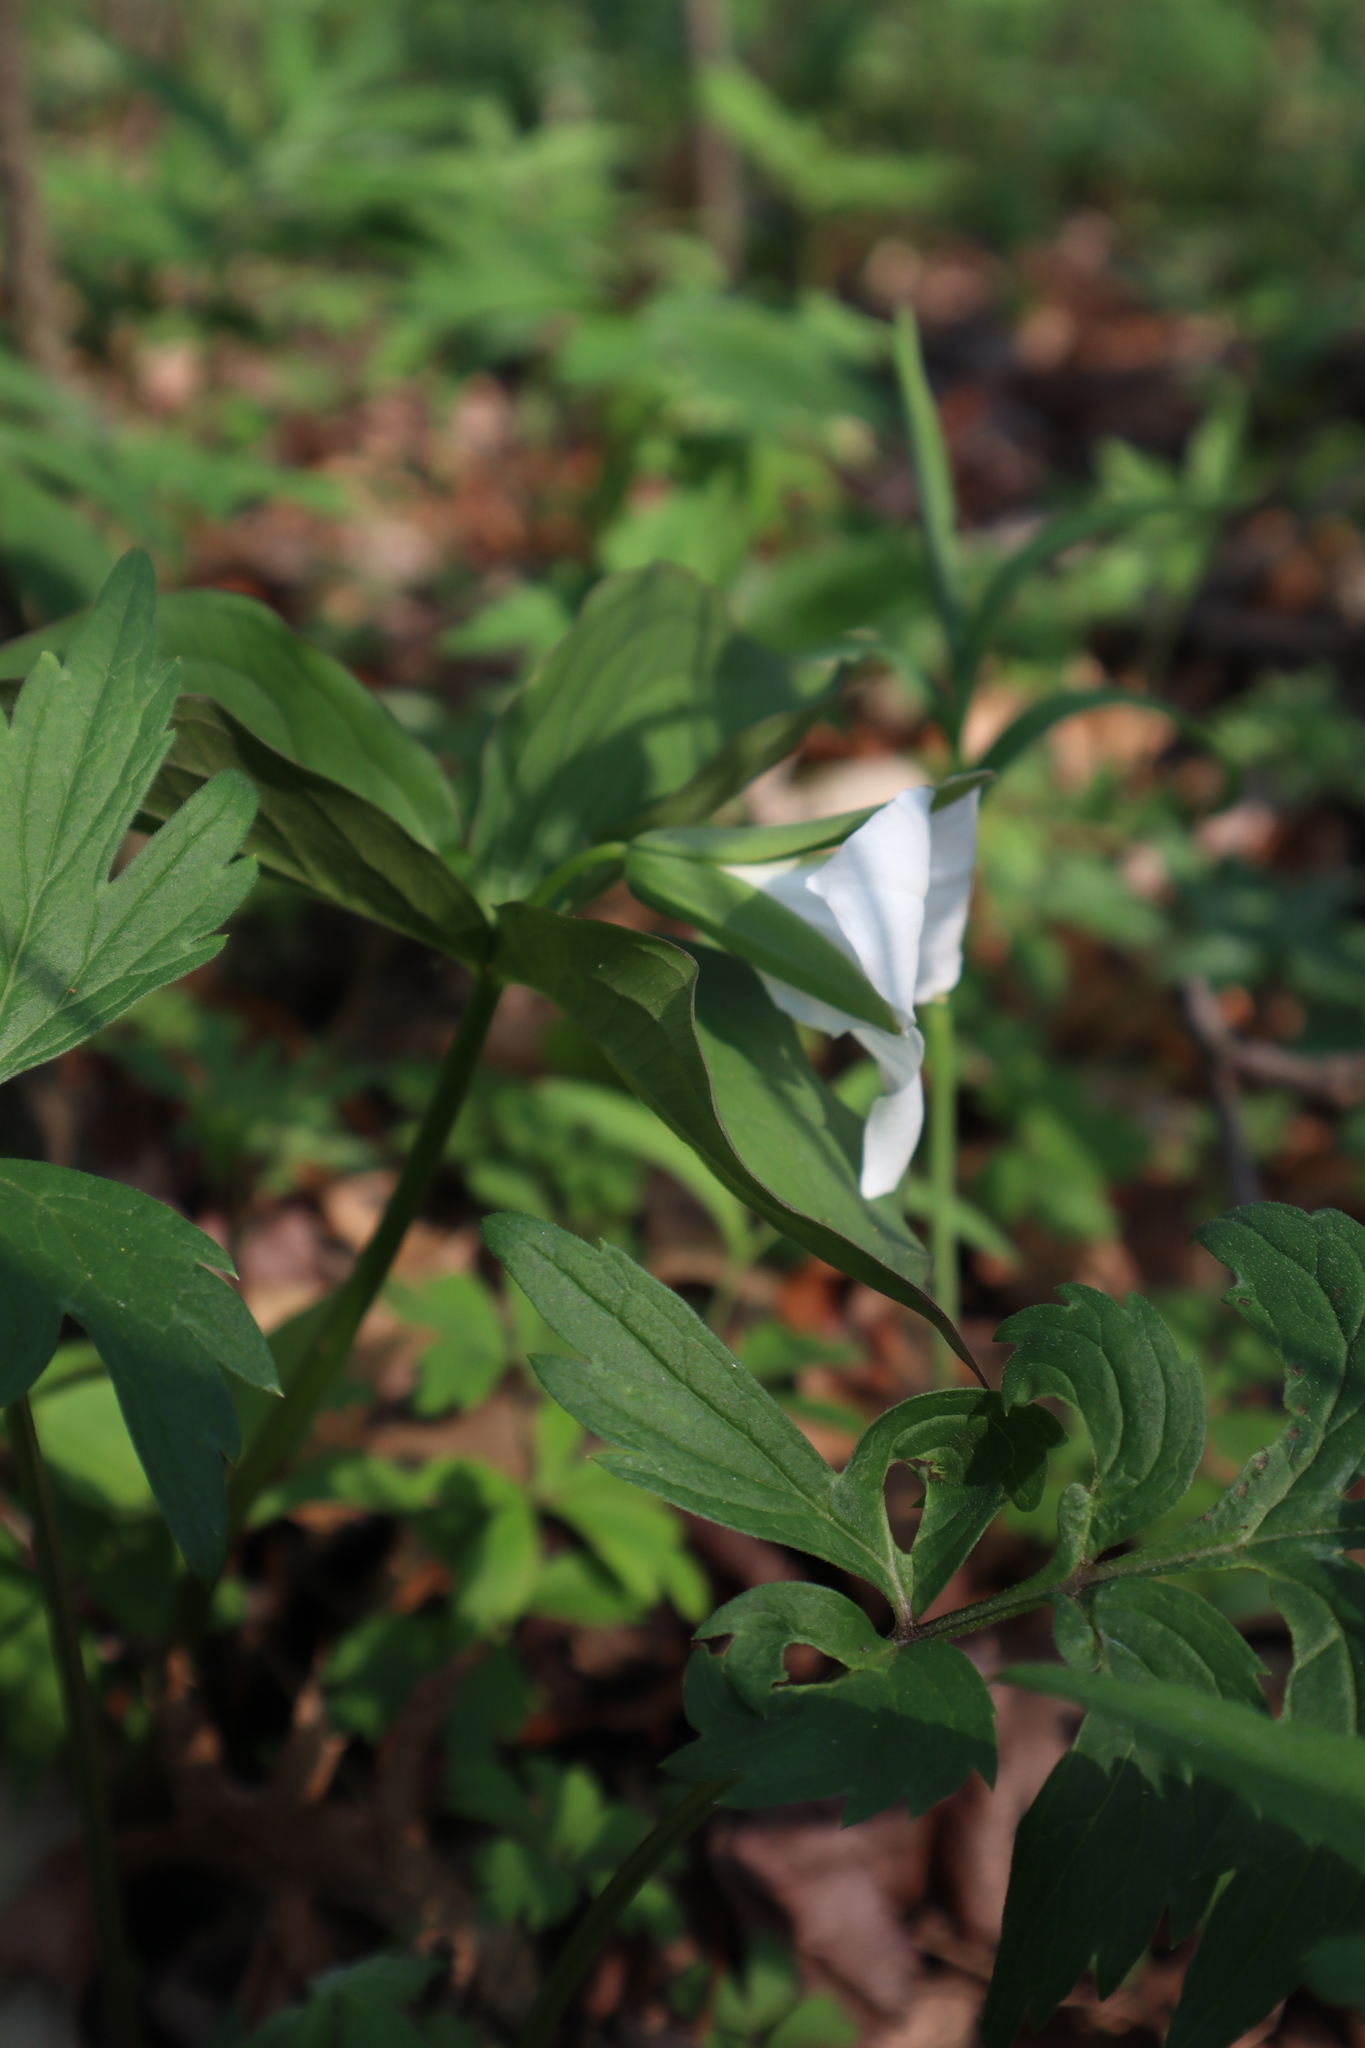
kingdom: Plantae
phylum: Tracheophyta
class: Liliopsida
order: Liliales
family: Melanthiaceae
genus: Trillium
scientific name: Trillium grandiflorum
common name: Great white trillium
